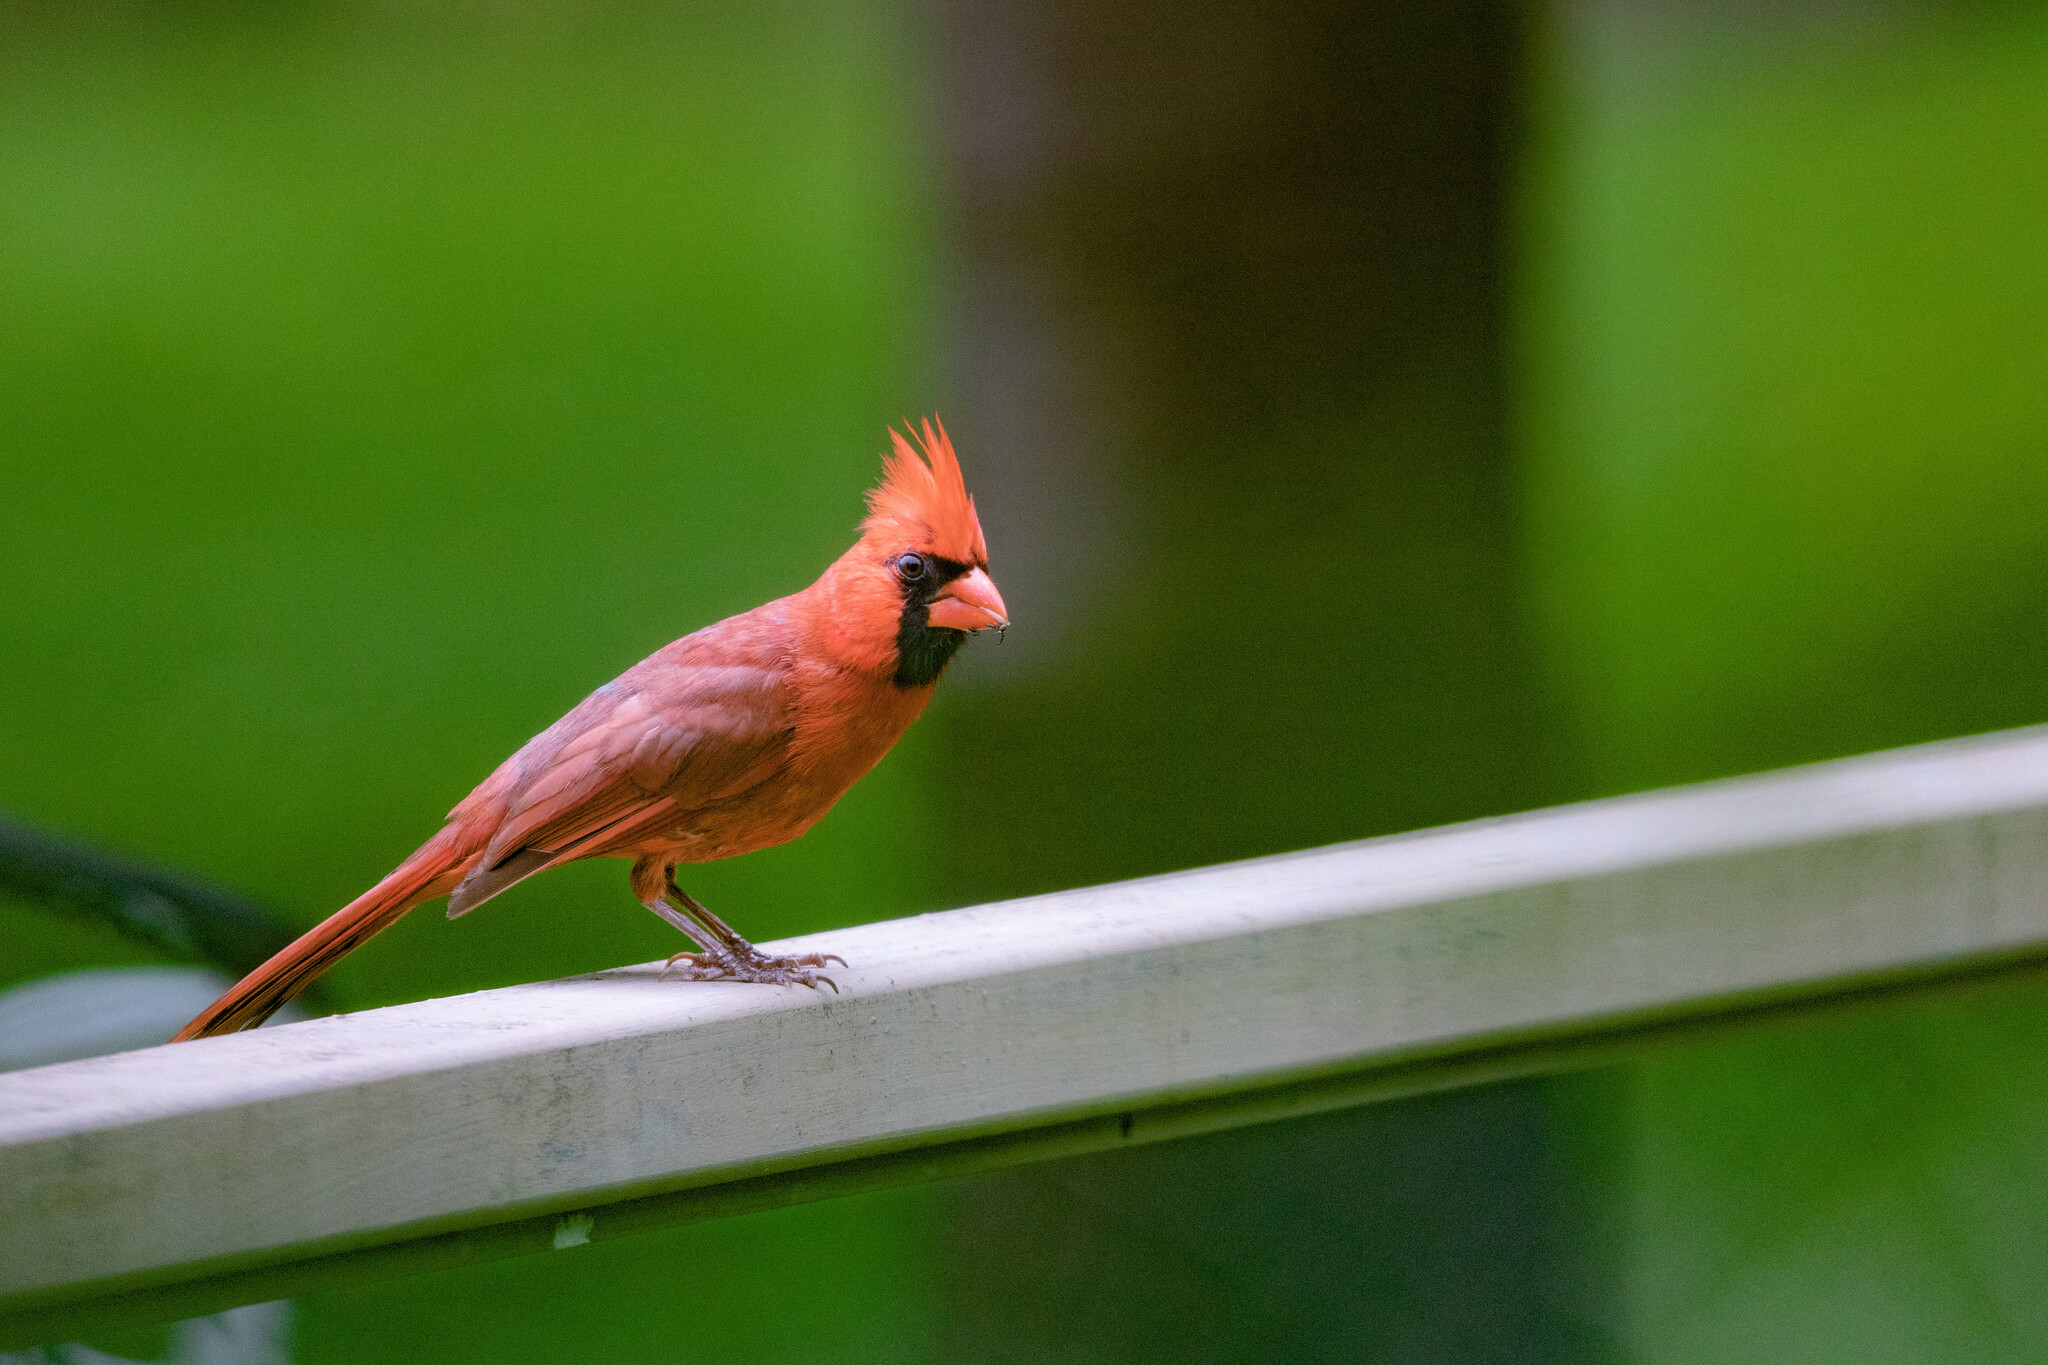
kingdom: Animalia
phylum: Chordata
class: Aves
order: Passeriformes
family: Cardinalidae
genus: Cardinalis
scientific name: Cardinalis cardinalis
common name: Northern cardinal
